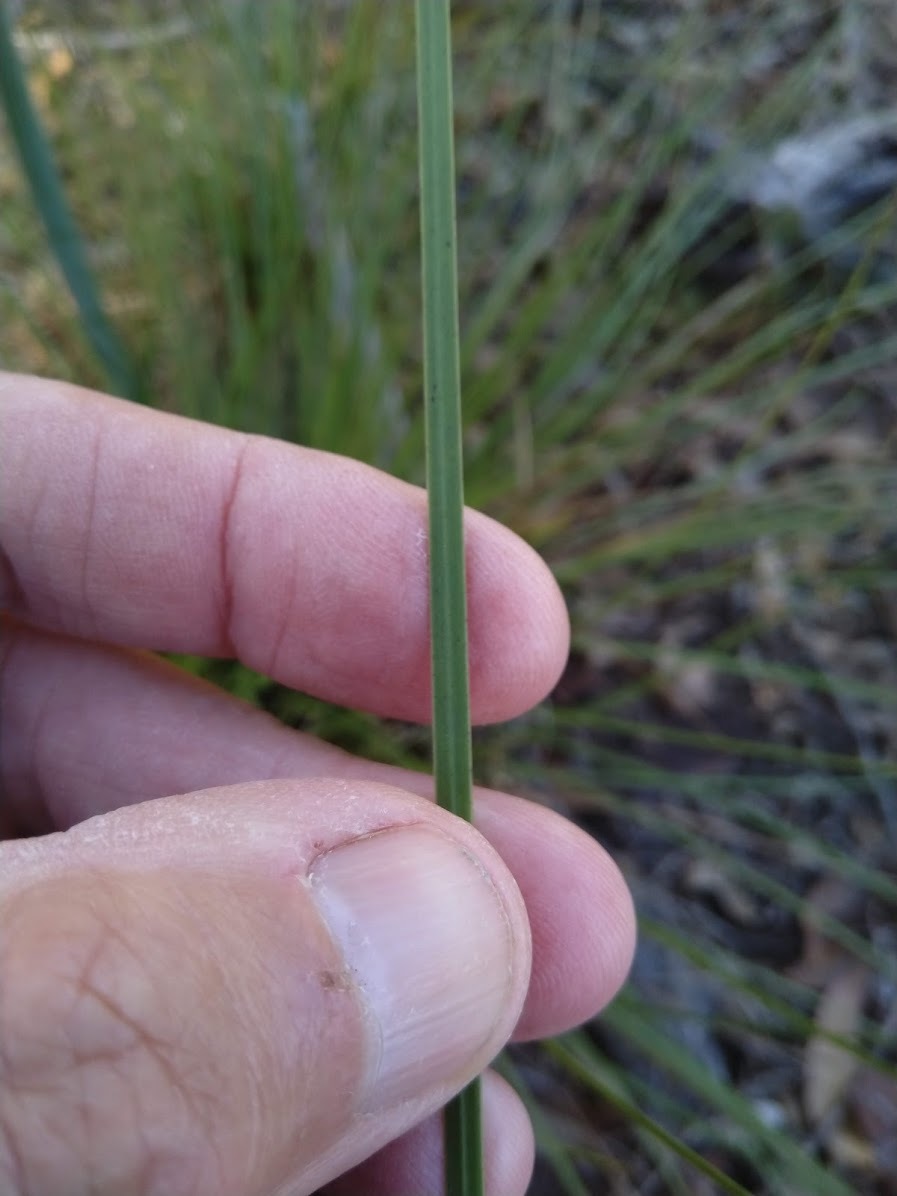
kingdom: Plantae
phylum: Tracheophyta
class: Liliopsida
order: Asparagales
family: Asphodelaceae
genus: Xanthorrhoea
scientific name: Xanthorrhoea latifolia
